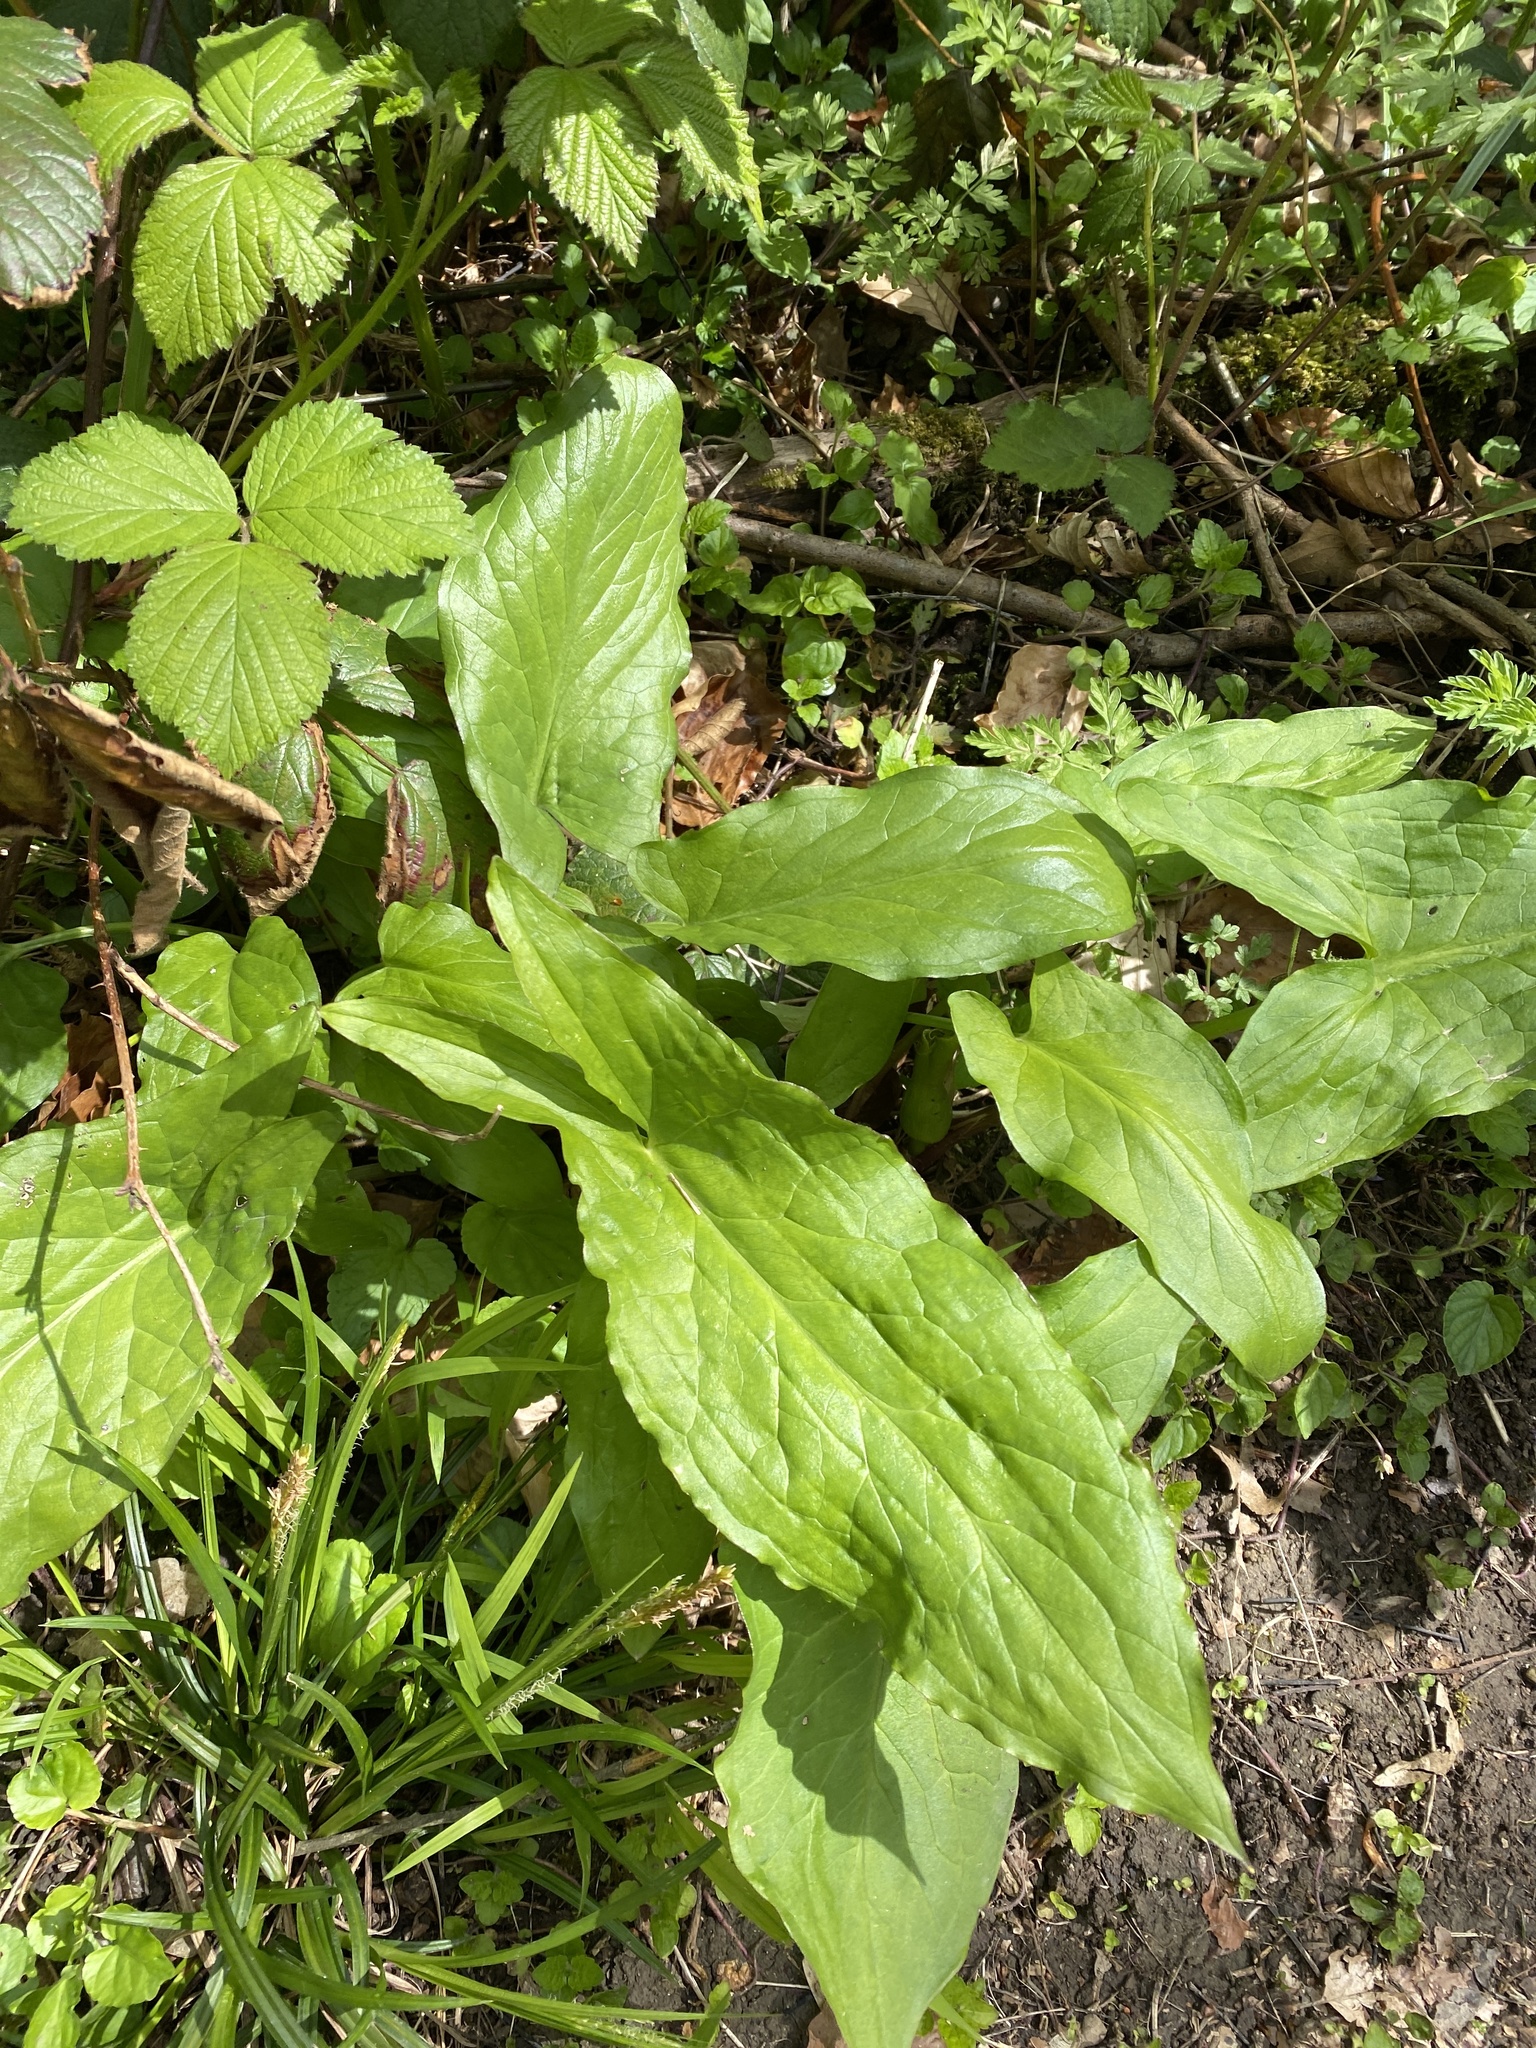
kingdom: Plantae
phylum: Tracheophyta
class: Liliopsida
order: Alismatales
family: Araceae
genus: Arum
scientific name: Arum maculatum
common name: Lords-and-ladies
